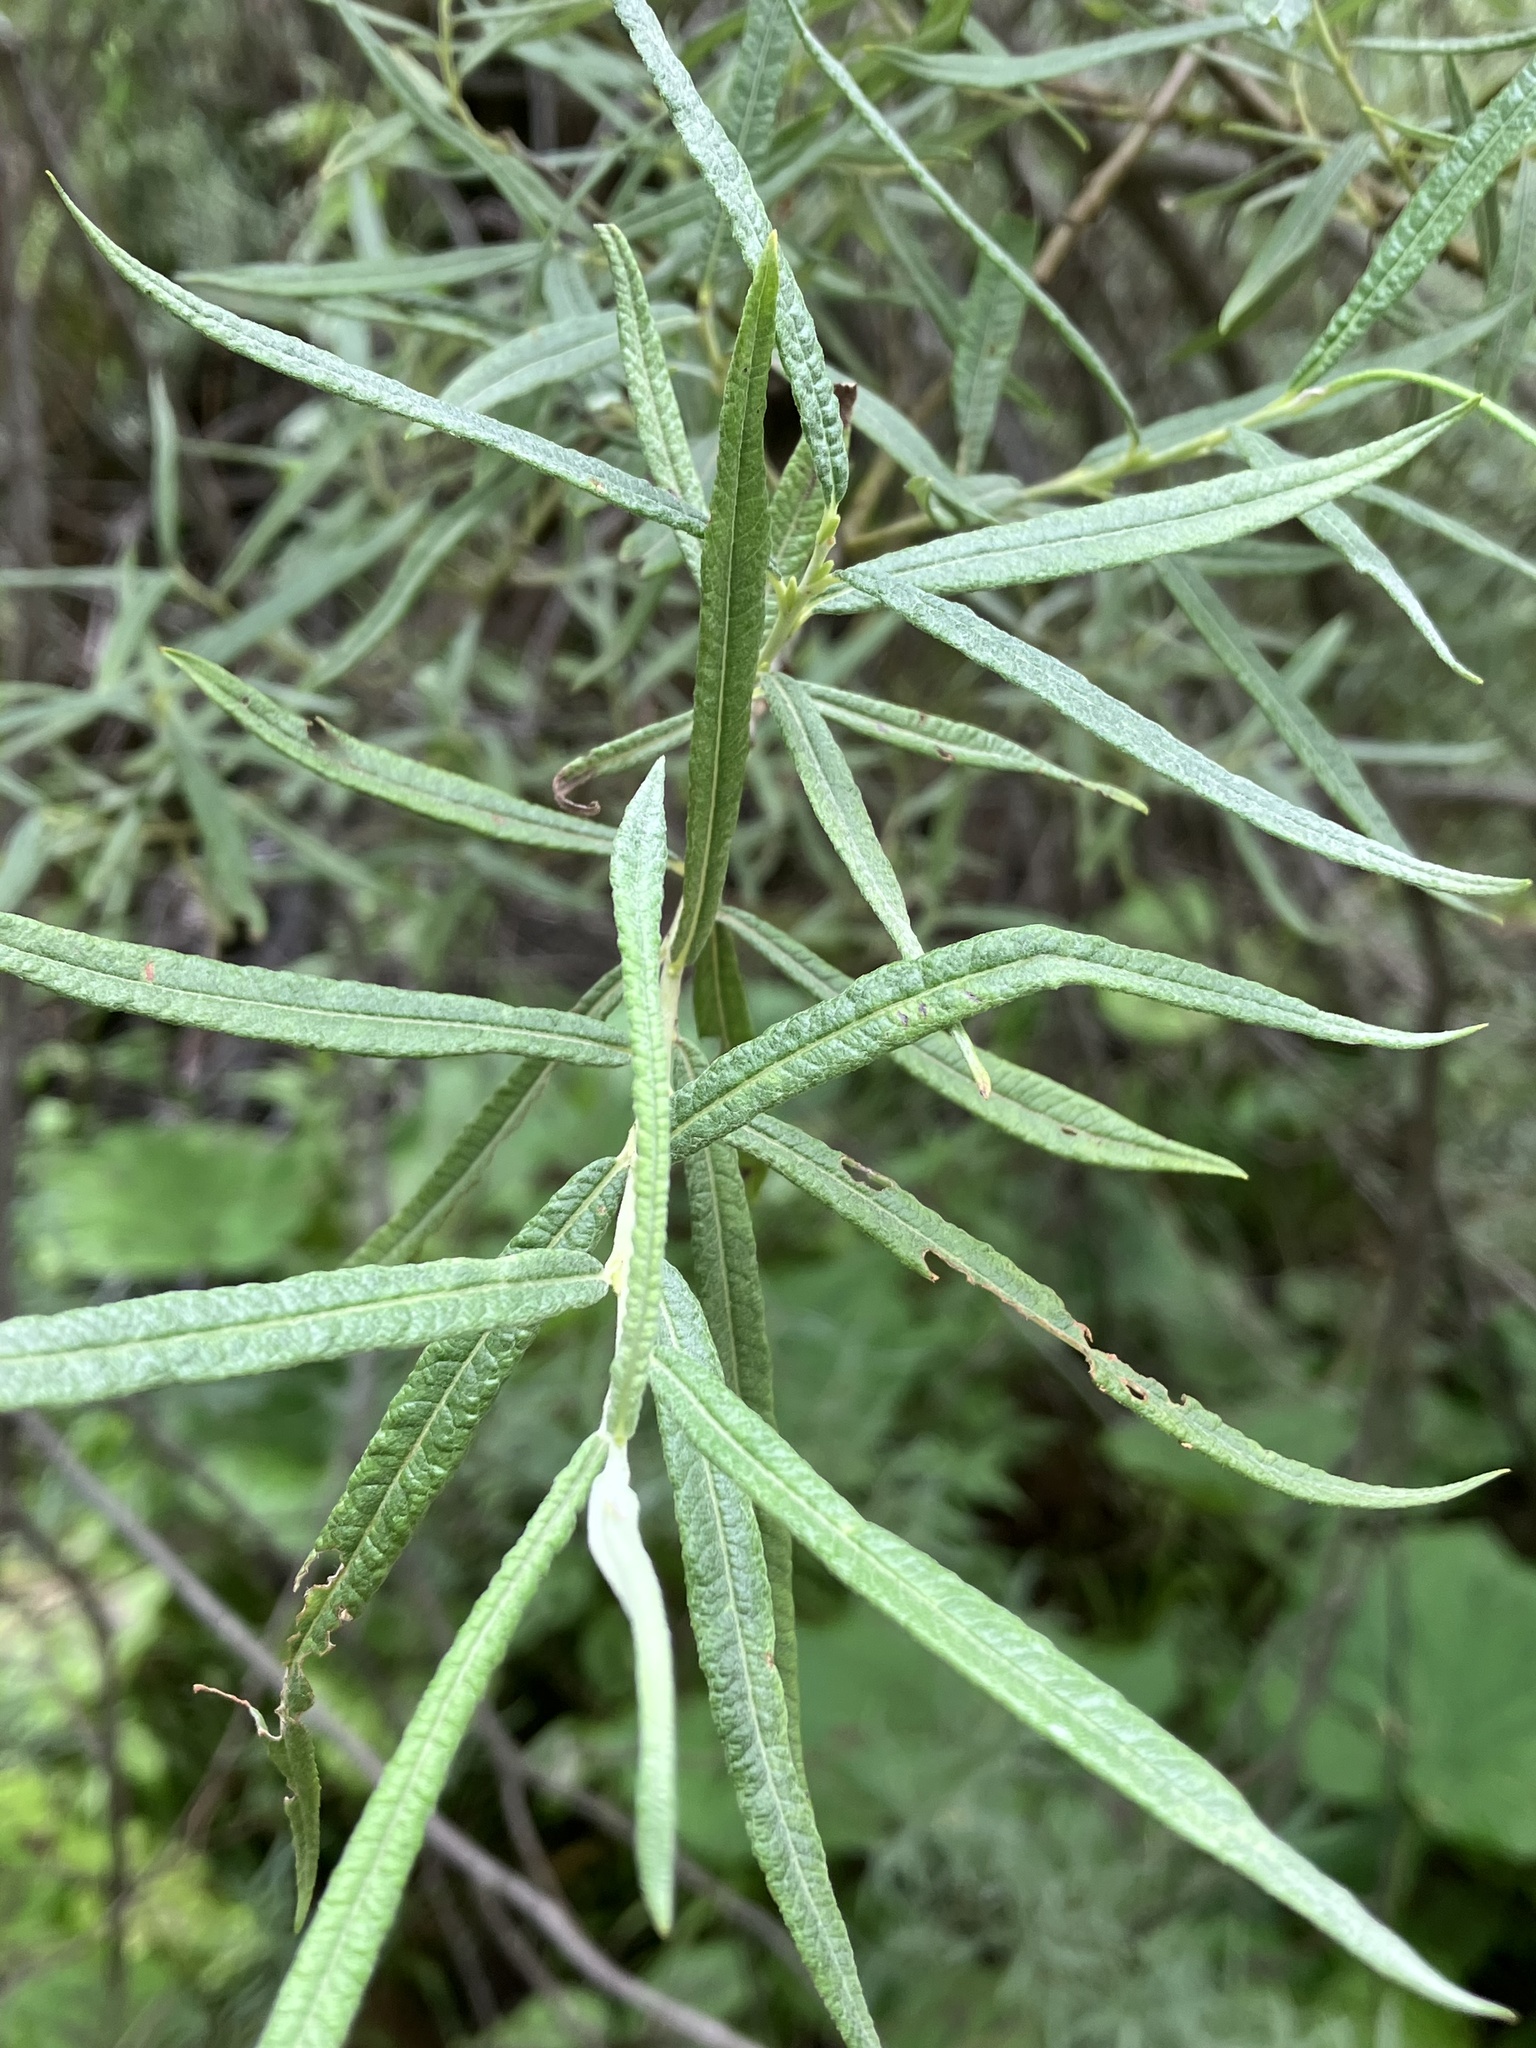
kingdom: Plantae
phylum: Tracheophyta
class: Magnoliopsida
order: Malpighiales
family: Salicaceae
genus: Salix
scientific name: Salix eleagnos
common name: Elaeagnus willow
